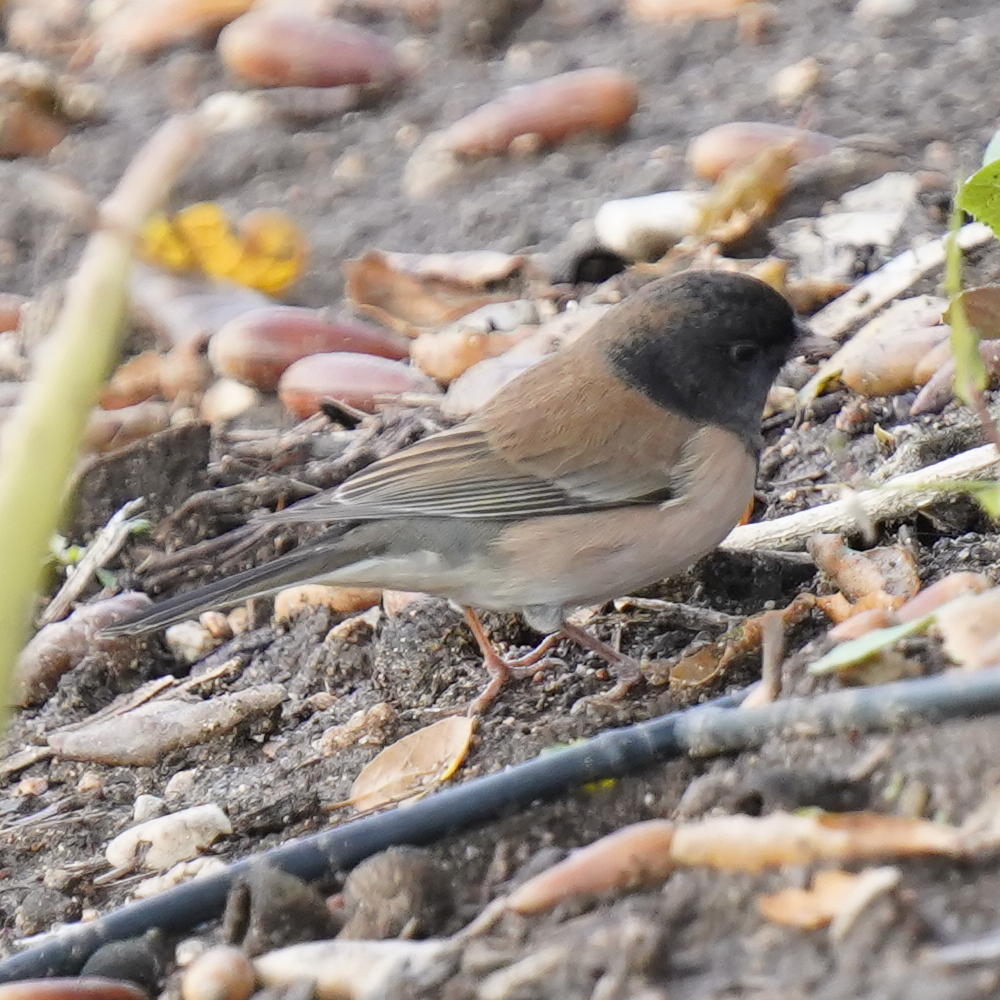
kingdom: Animalia
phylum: Chordata
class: Aves
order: Passeriformes
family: Passerellidae
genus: Junco
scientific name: Junco hyemalis
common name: Dark-eyed junco
